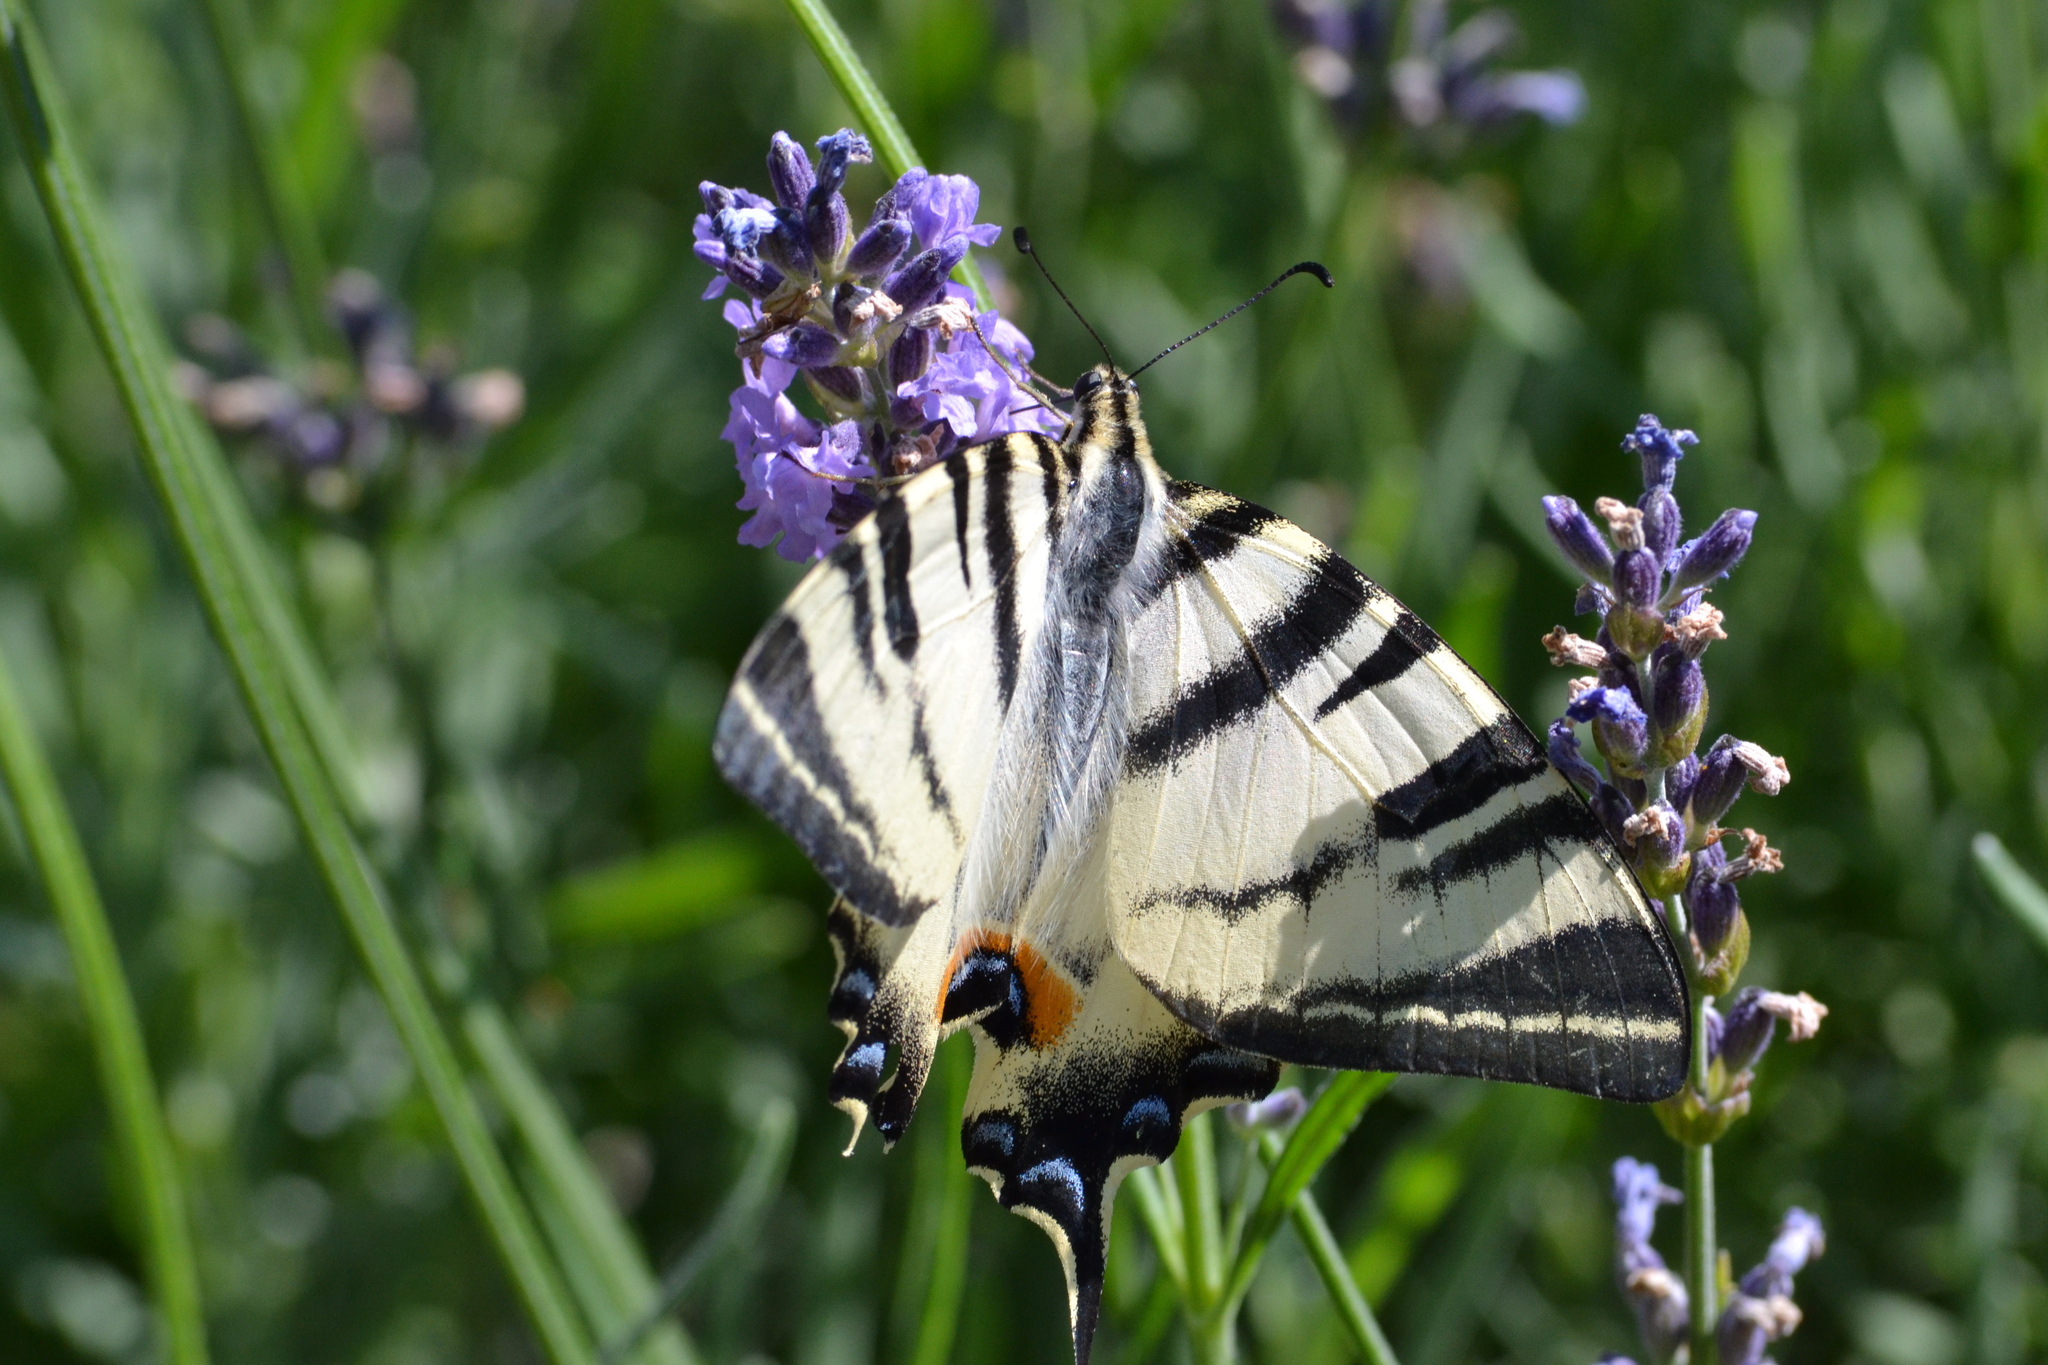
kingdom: Animalia
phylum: Arthropoda
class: Insecta
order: Lepidoptera
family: Papilionidae
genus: Iphiclides
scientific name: Iphiclides podalirius
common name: Scarce swallowtail
